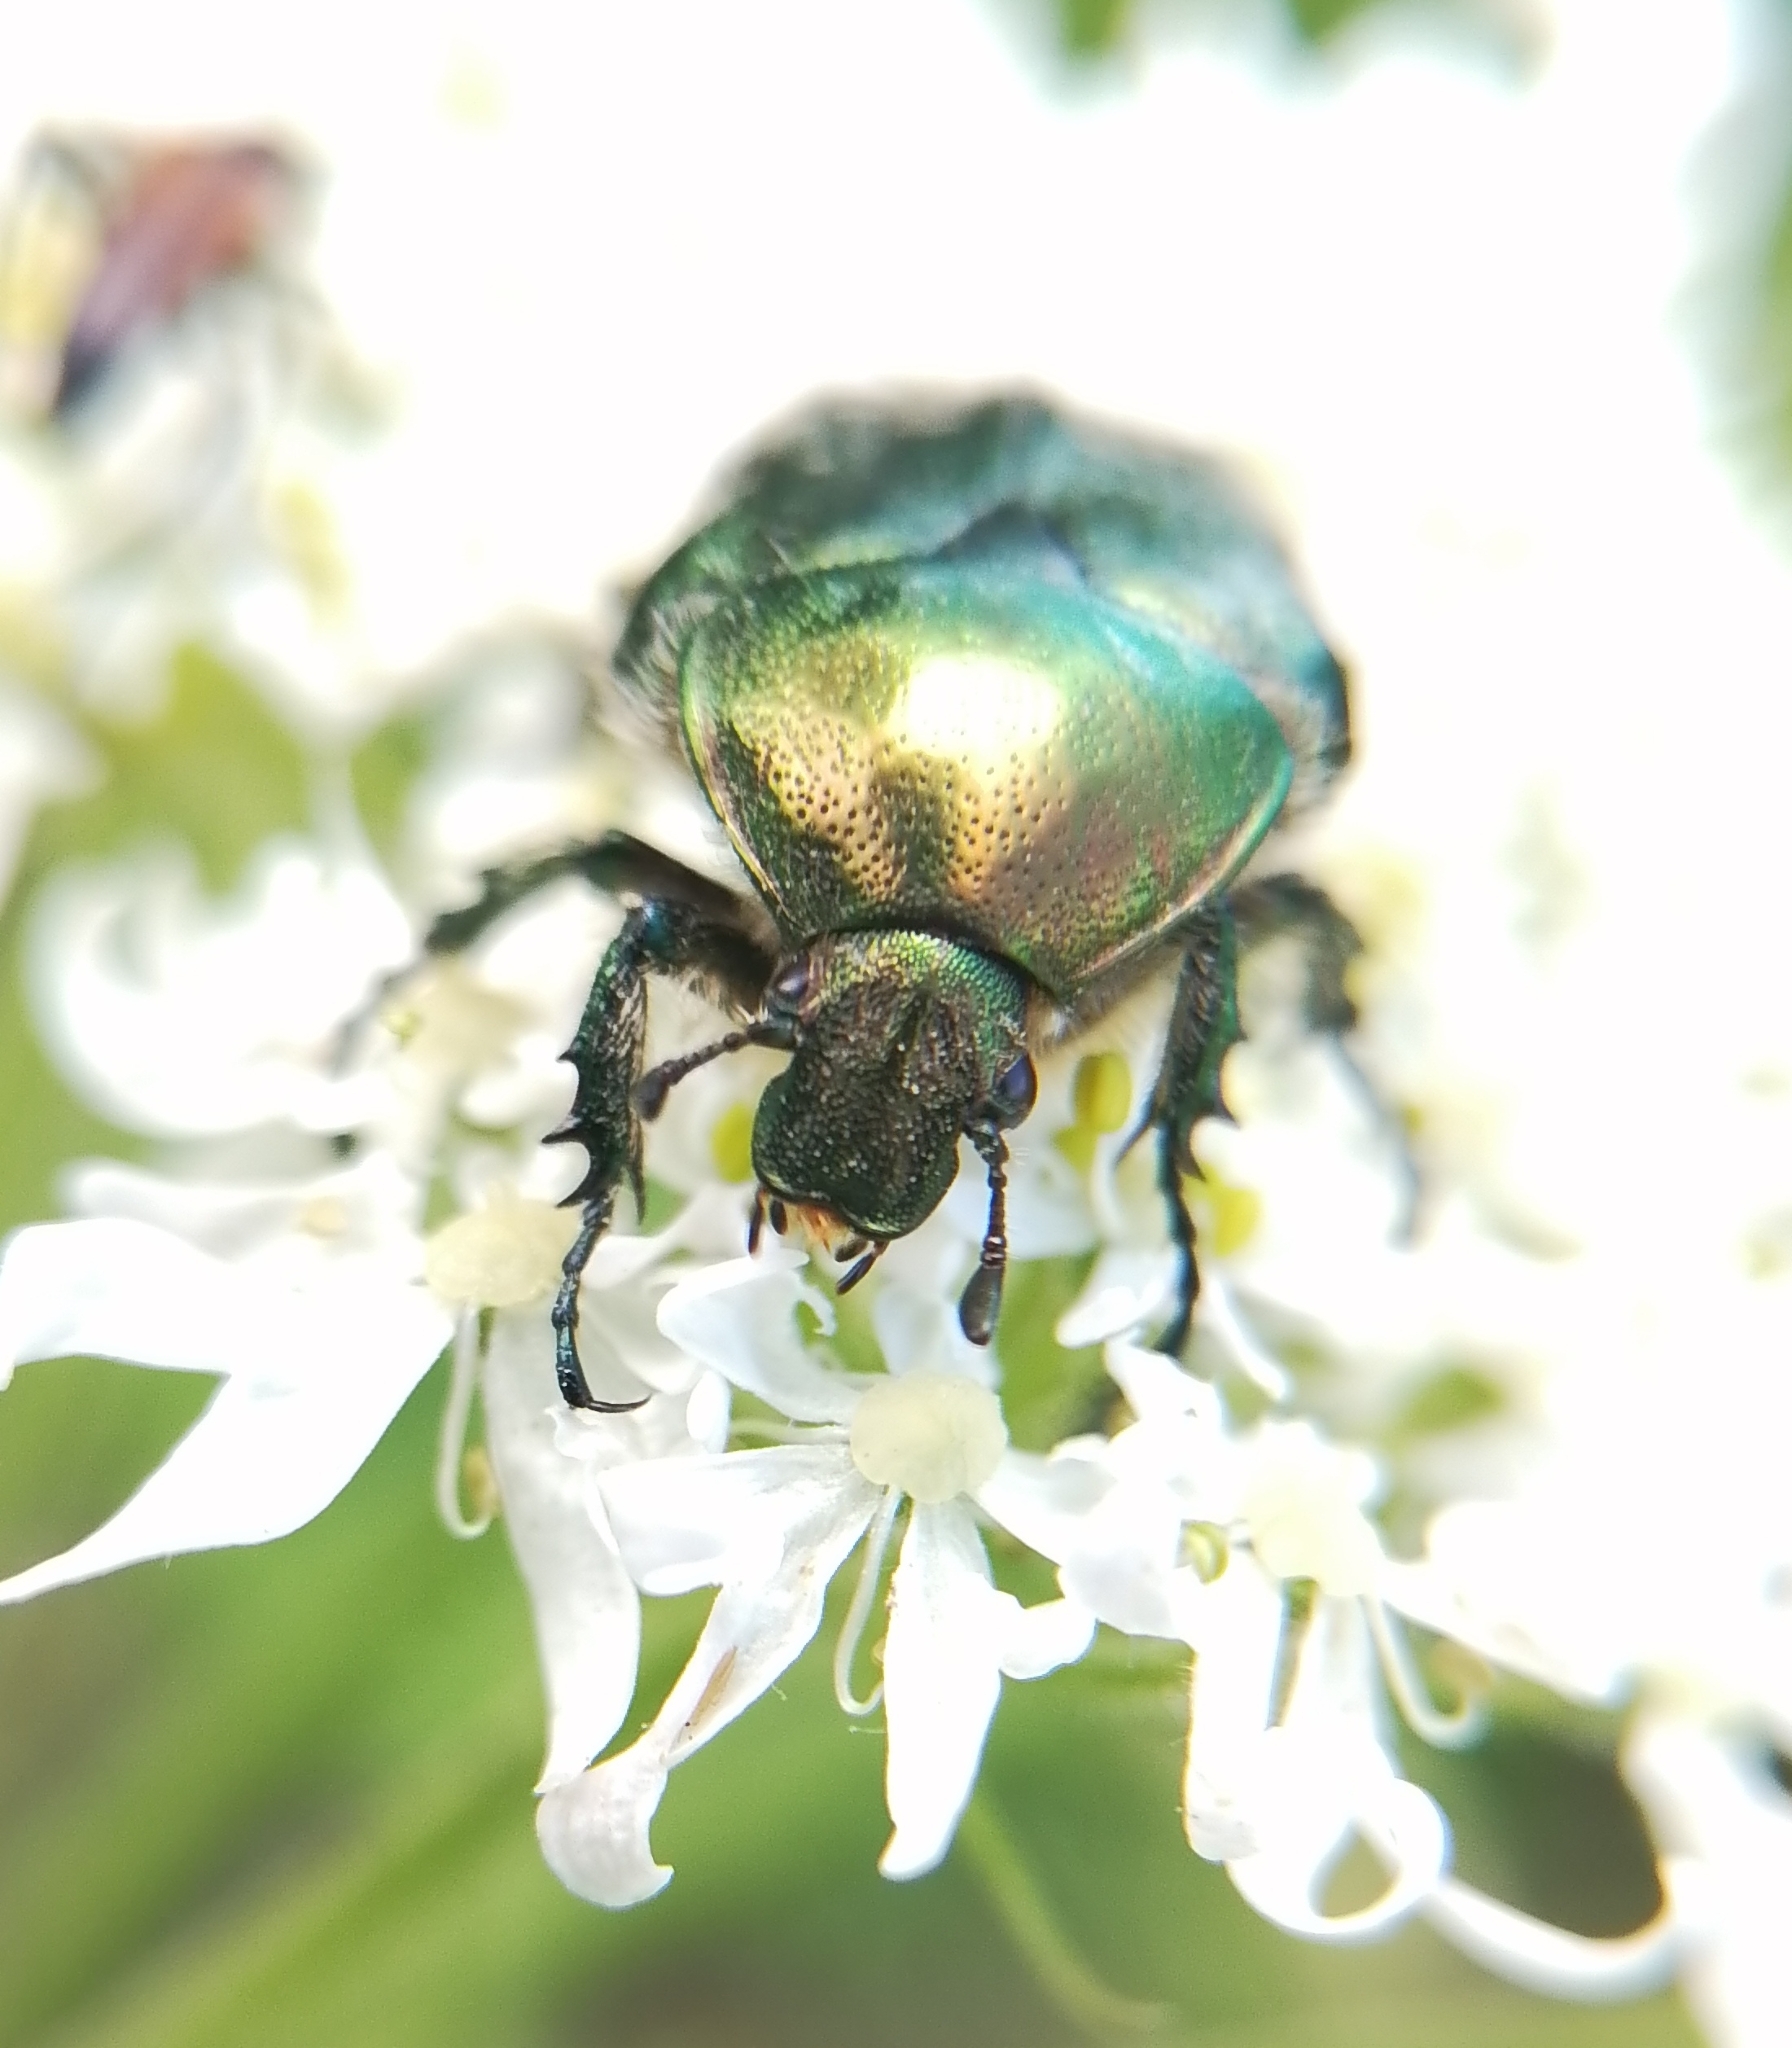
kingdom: Animalia
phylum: Arthropoda
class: Insecta
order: Coleoptera
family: Scarabaeidae
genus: Cetonia
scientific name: Cetonia aurata
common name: Rose chafer
